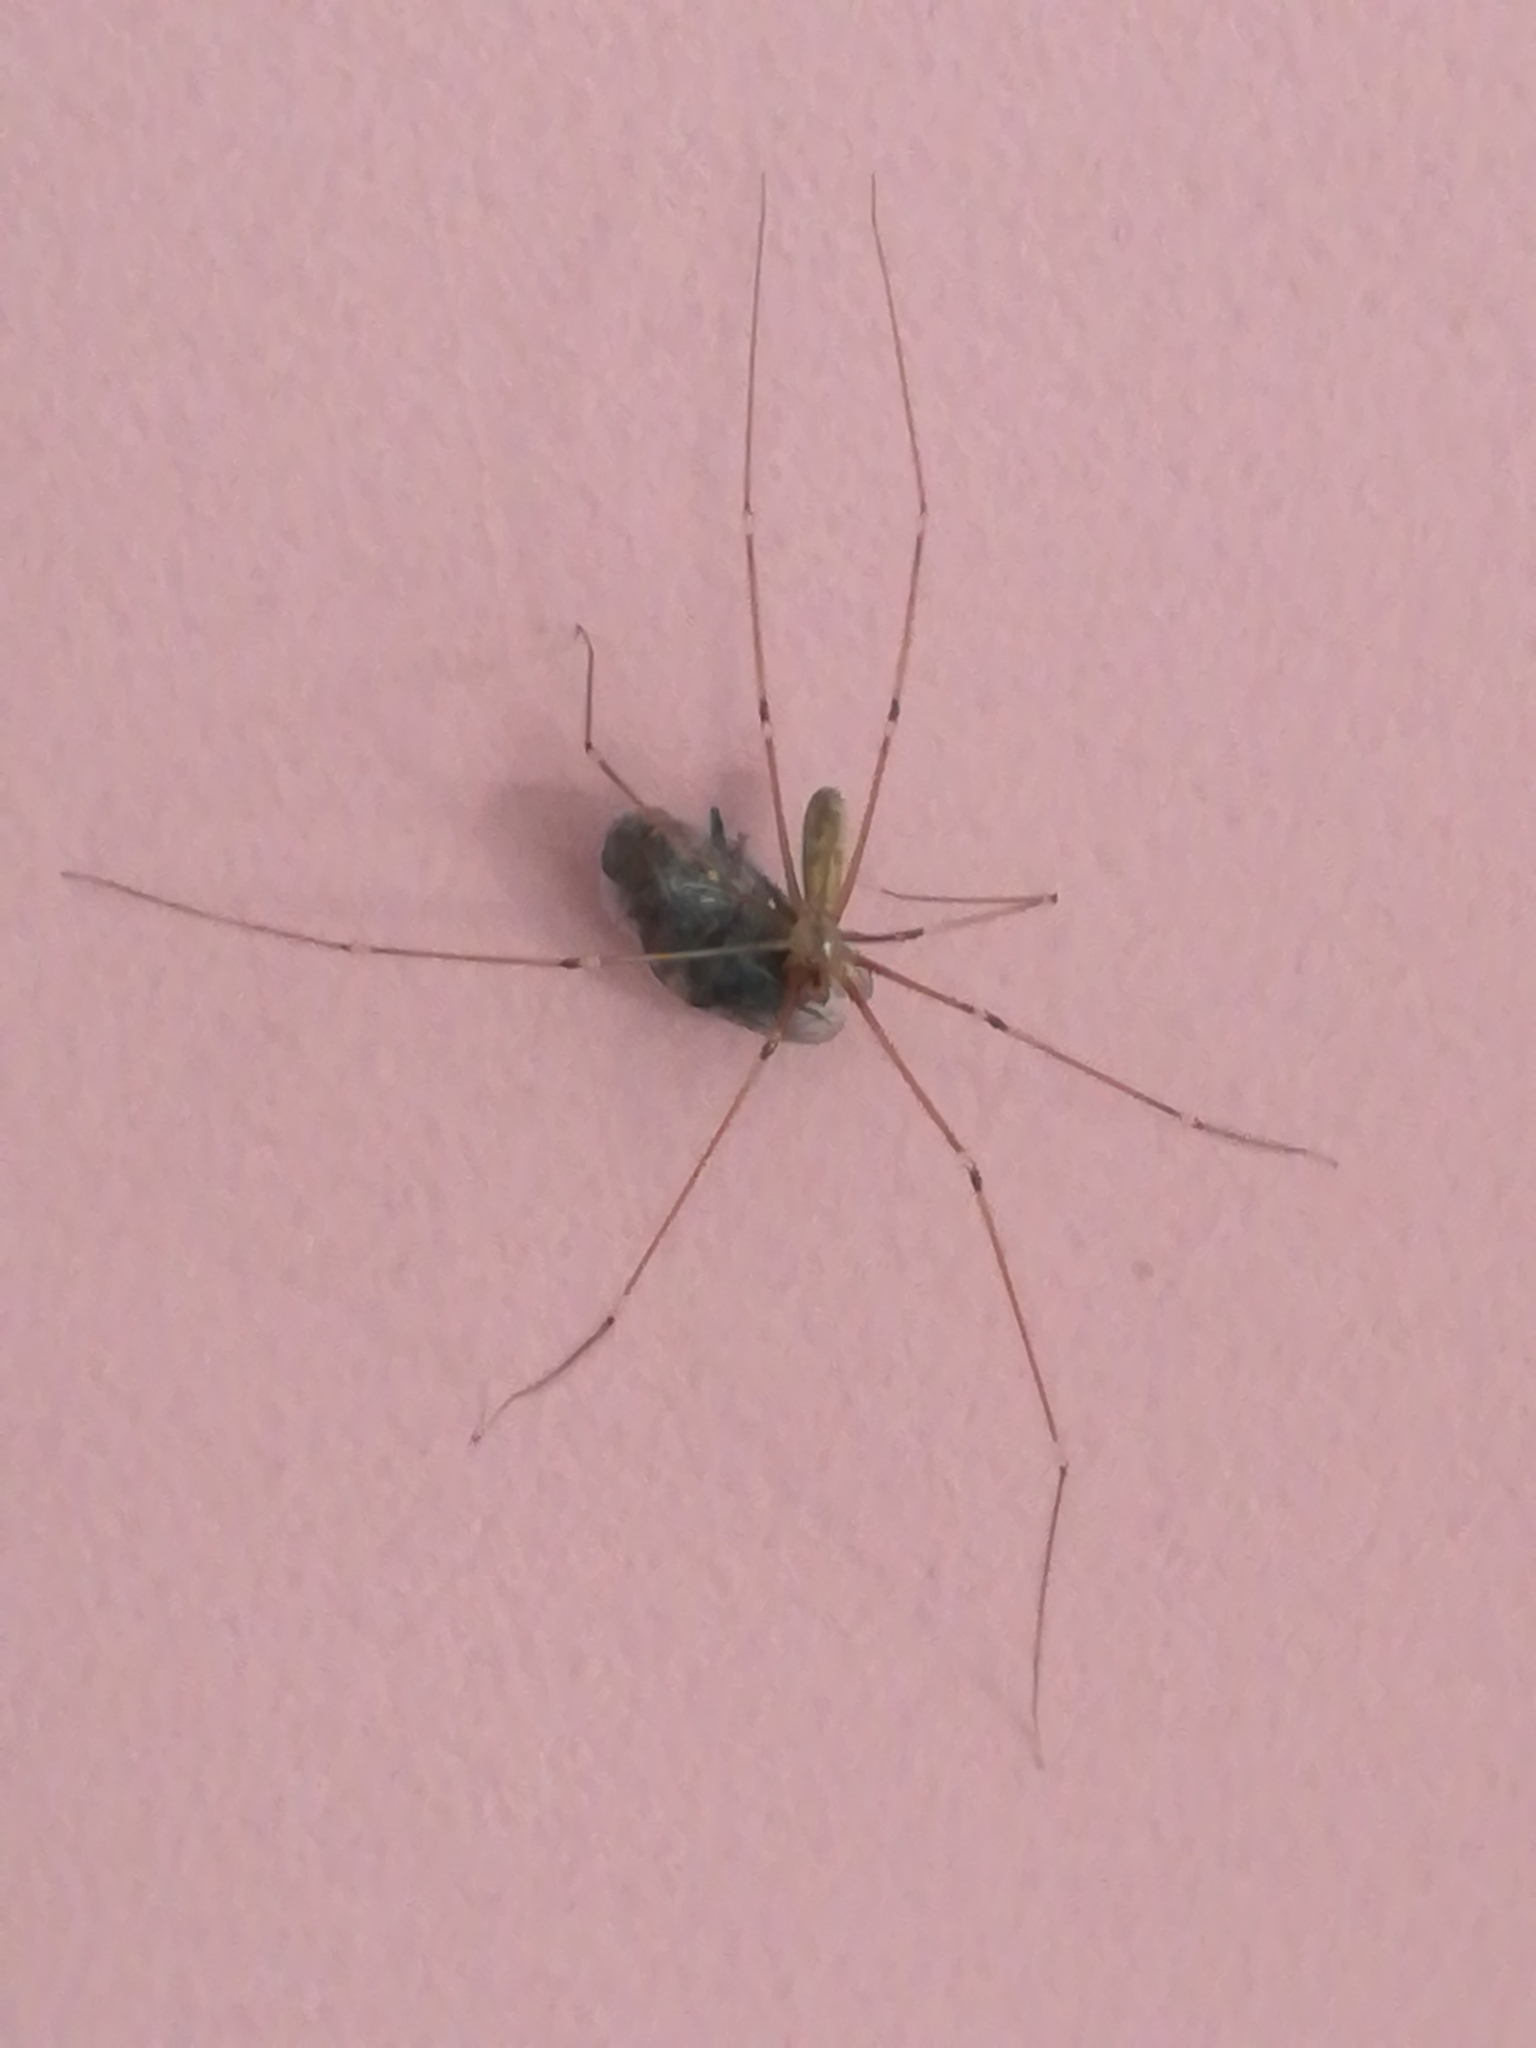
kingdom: Animalia
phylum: Arthropoda
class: Arachnida
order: Araneae
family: Pholcidae
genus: Pholcus
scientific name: Pholcus phalangioides
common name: Longbodied cellar spider
